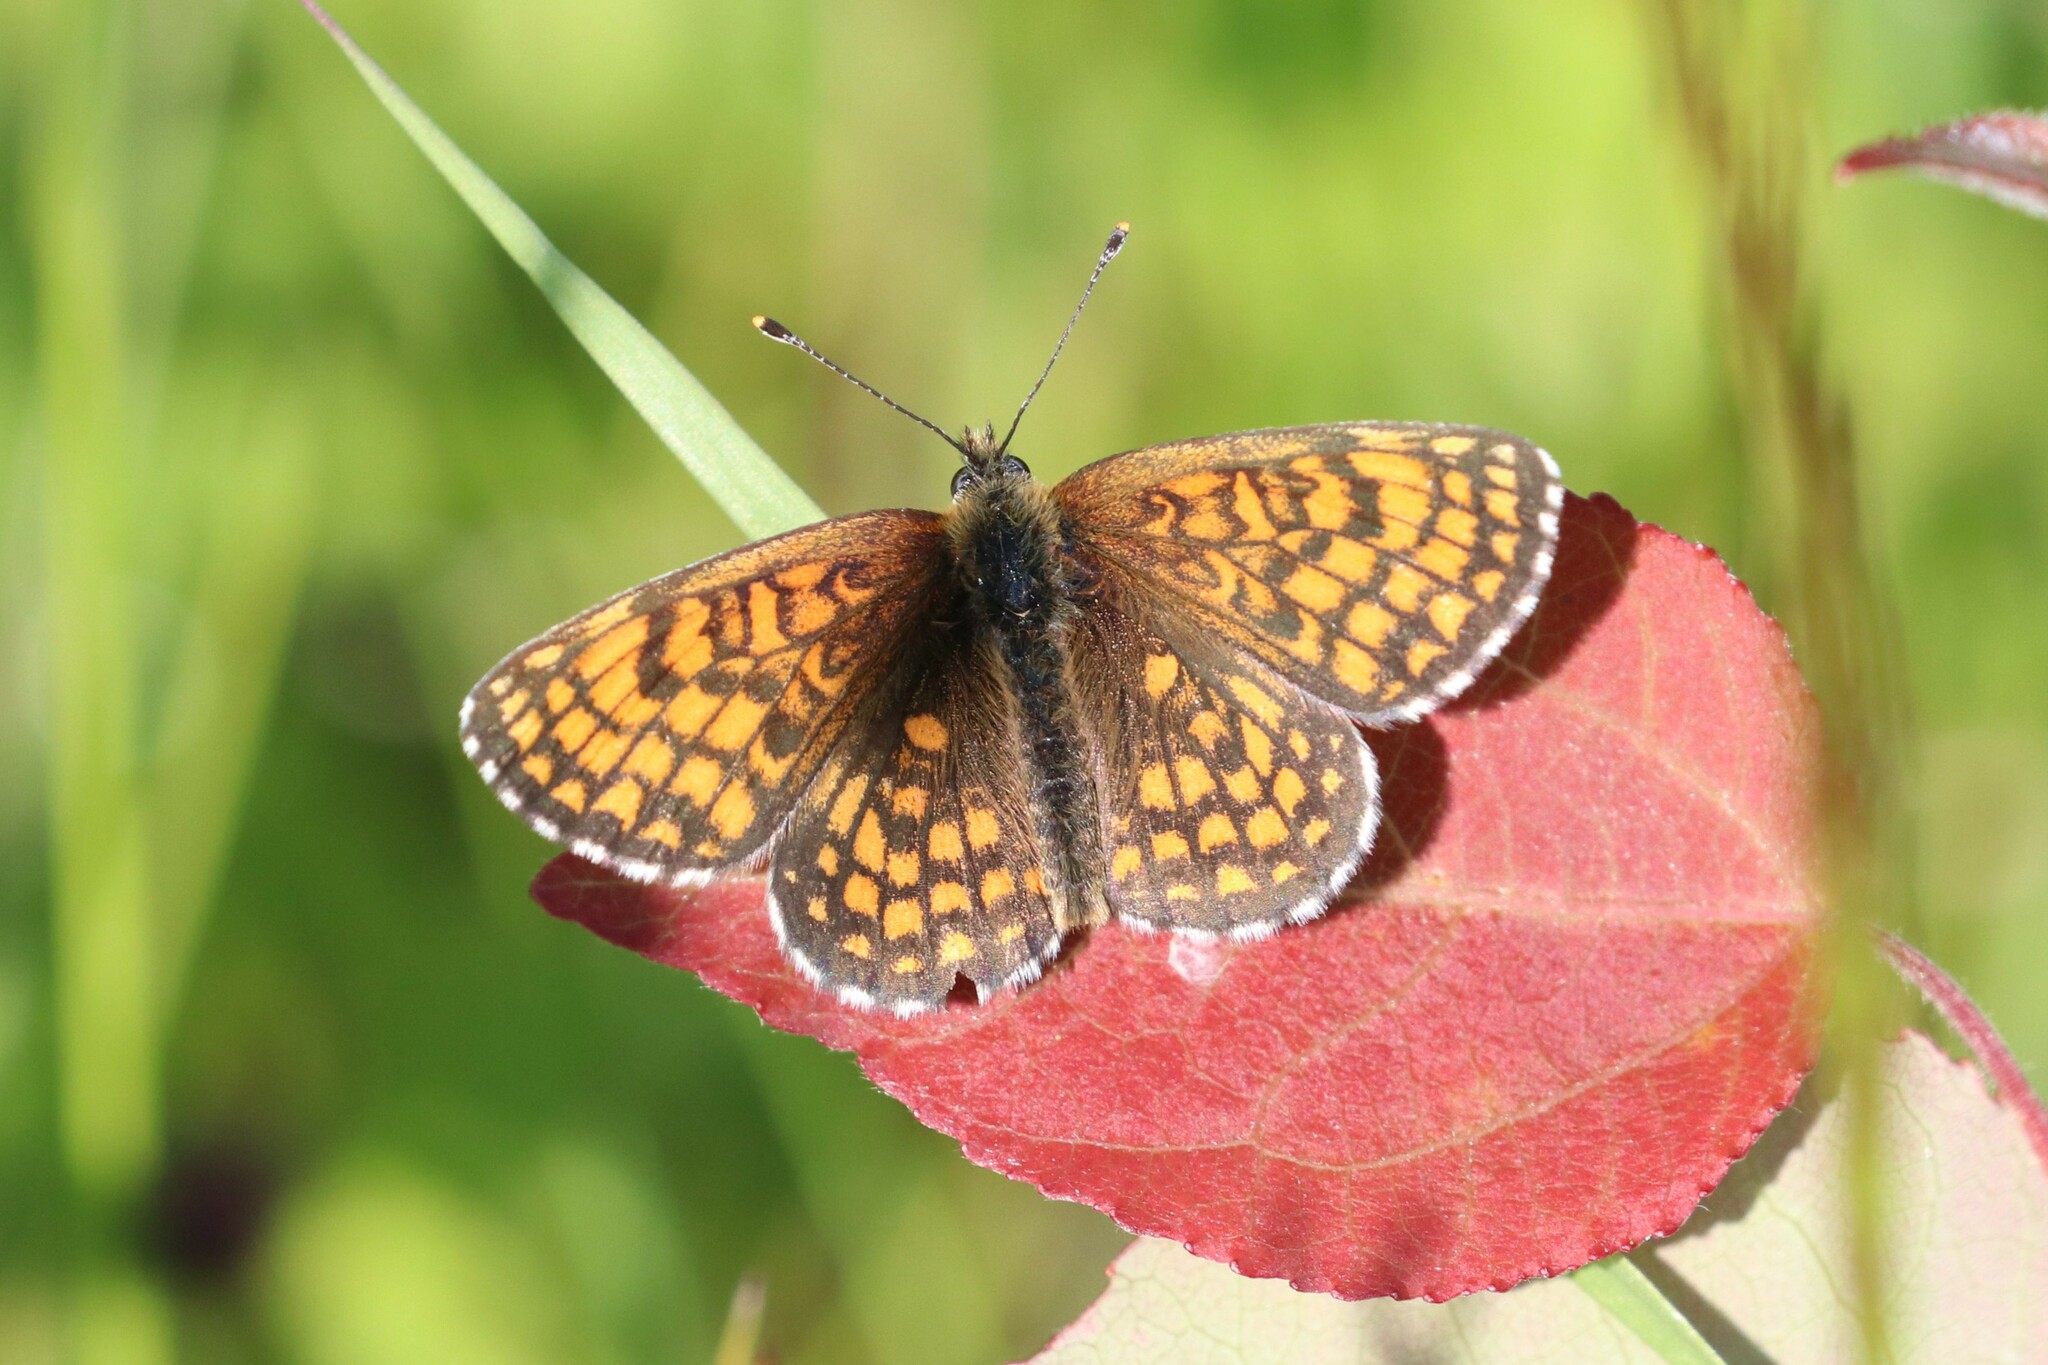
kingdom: Animalia
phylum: Arthropoda
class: Insecta
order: Lepidoptera
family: Nymphalidae
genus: Melitaea
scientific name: Melitaea athalia
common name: Heath fritillary
